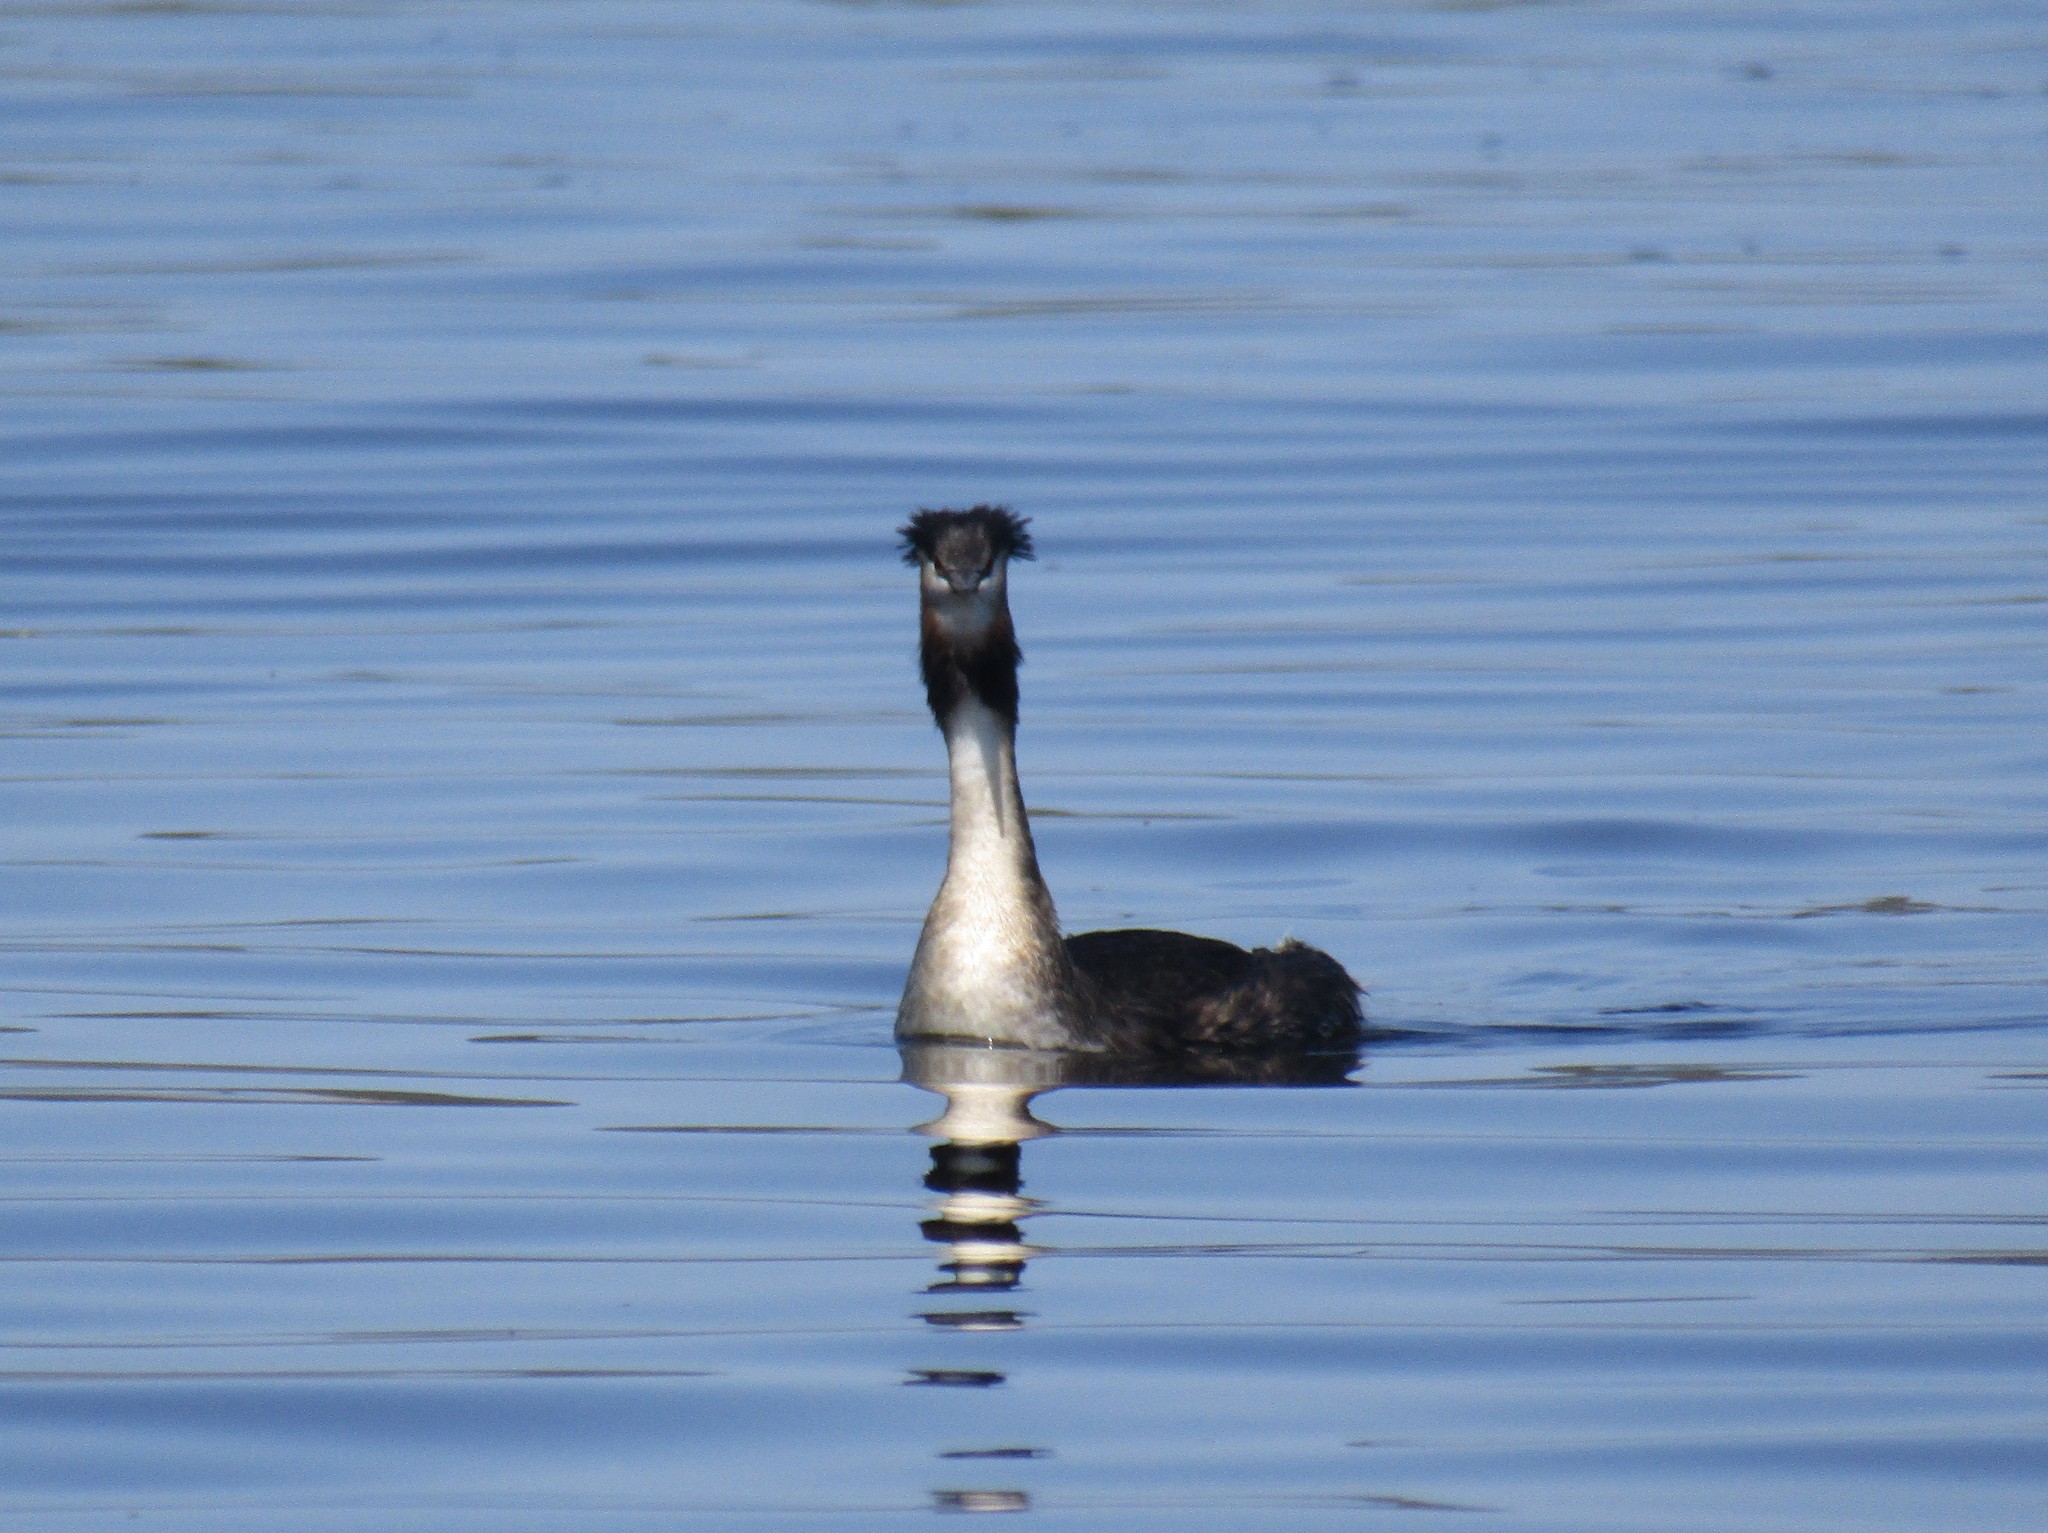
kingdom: Animalia
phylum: Chordata
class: Aves
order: Podicipediformes
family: Podicipedidae
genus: Podiceps
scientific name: Podiceps cristatus
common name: Great crested grebe
